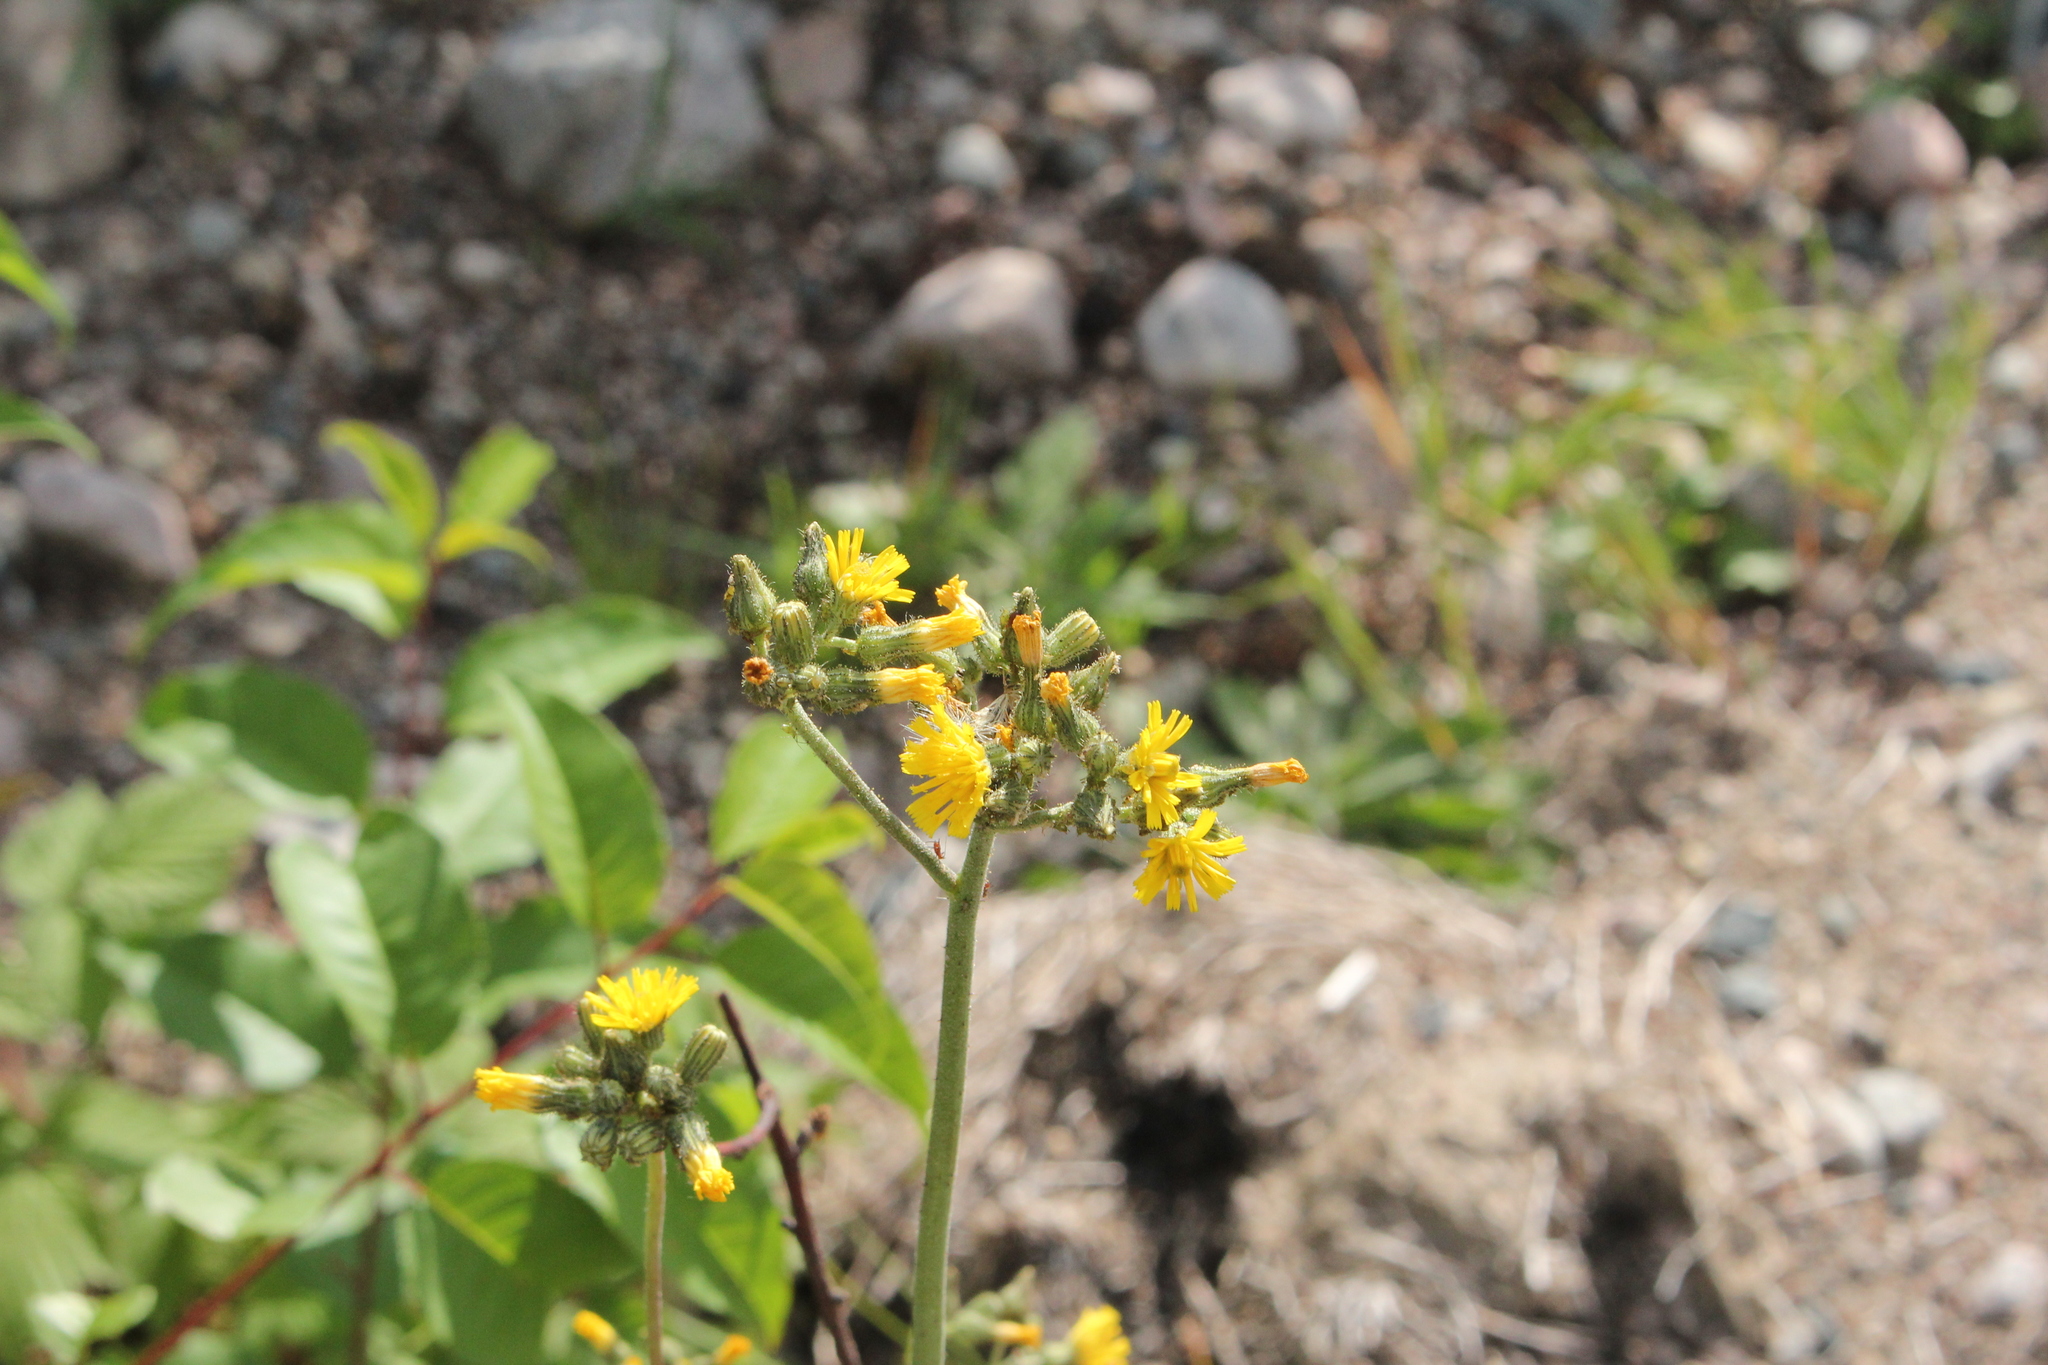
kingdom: Plantae
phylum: Tracheophyta
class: Magnoliopsida
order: Asterales
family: Asteraceae
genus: Pilosella
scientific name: Pilosella caespitosa
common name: Yellow fox-and-cubs
